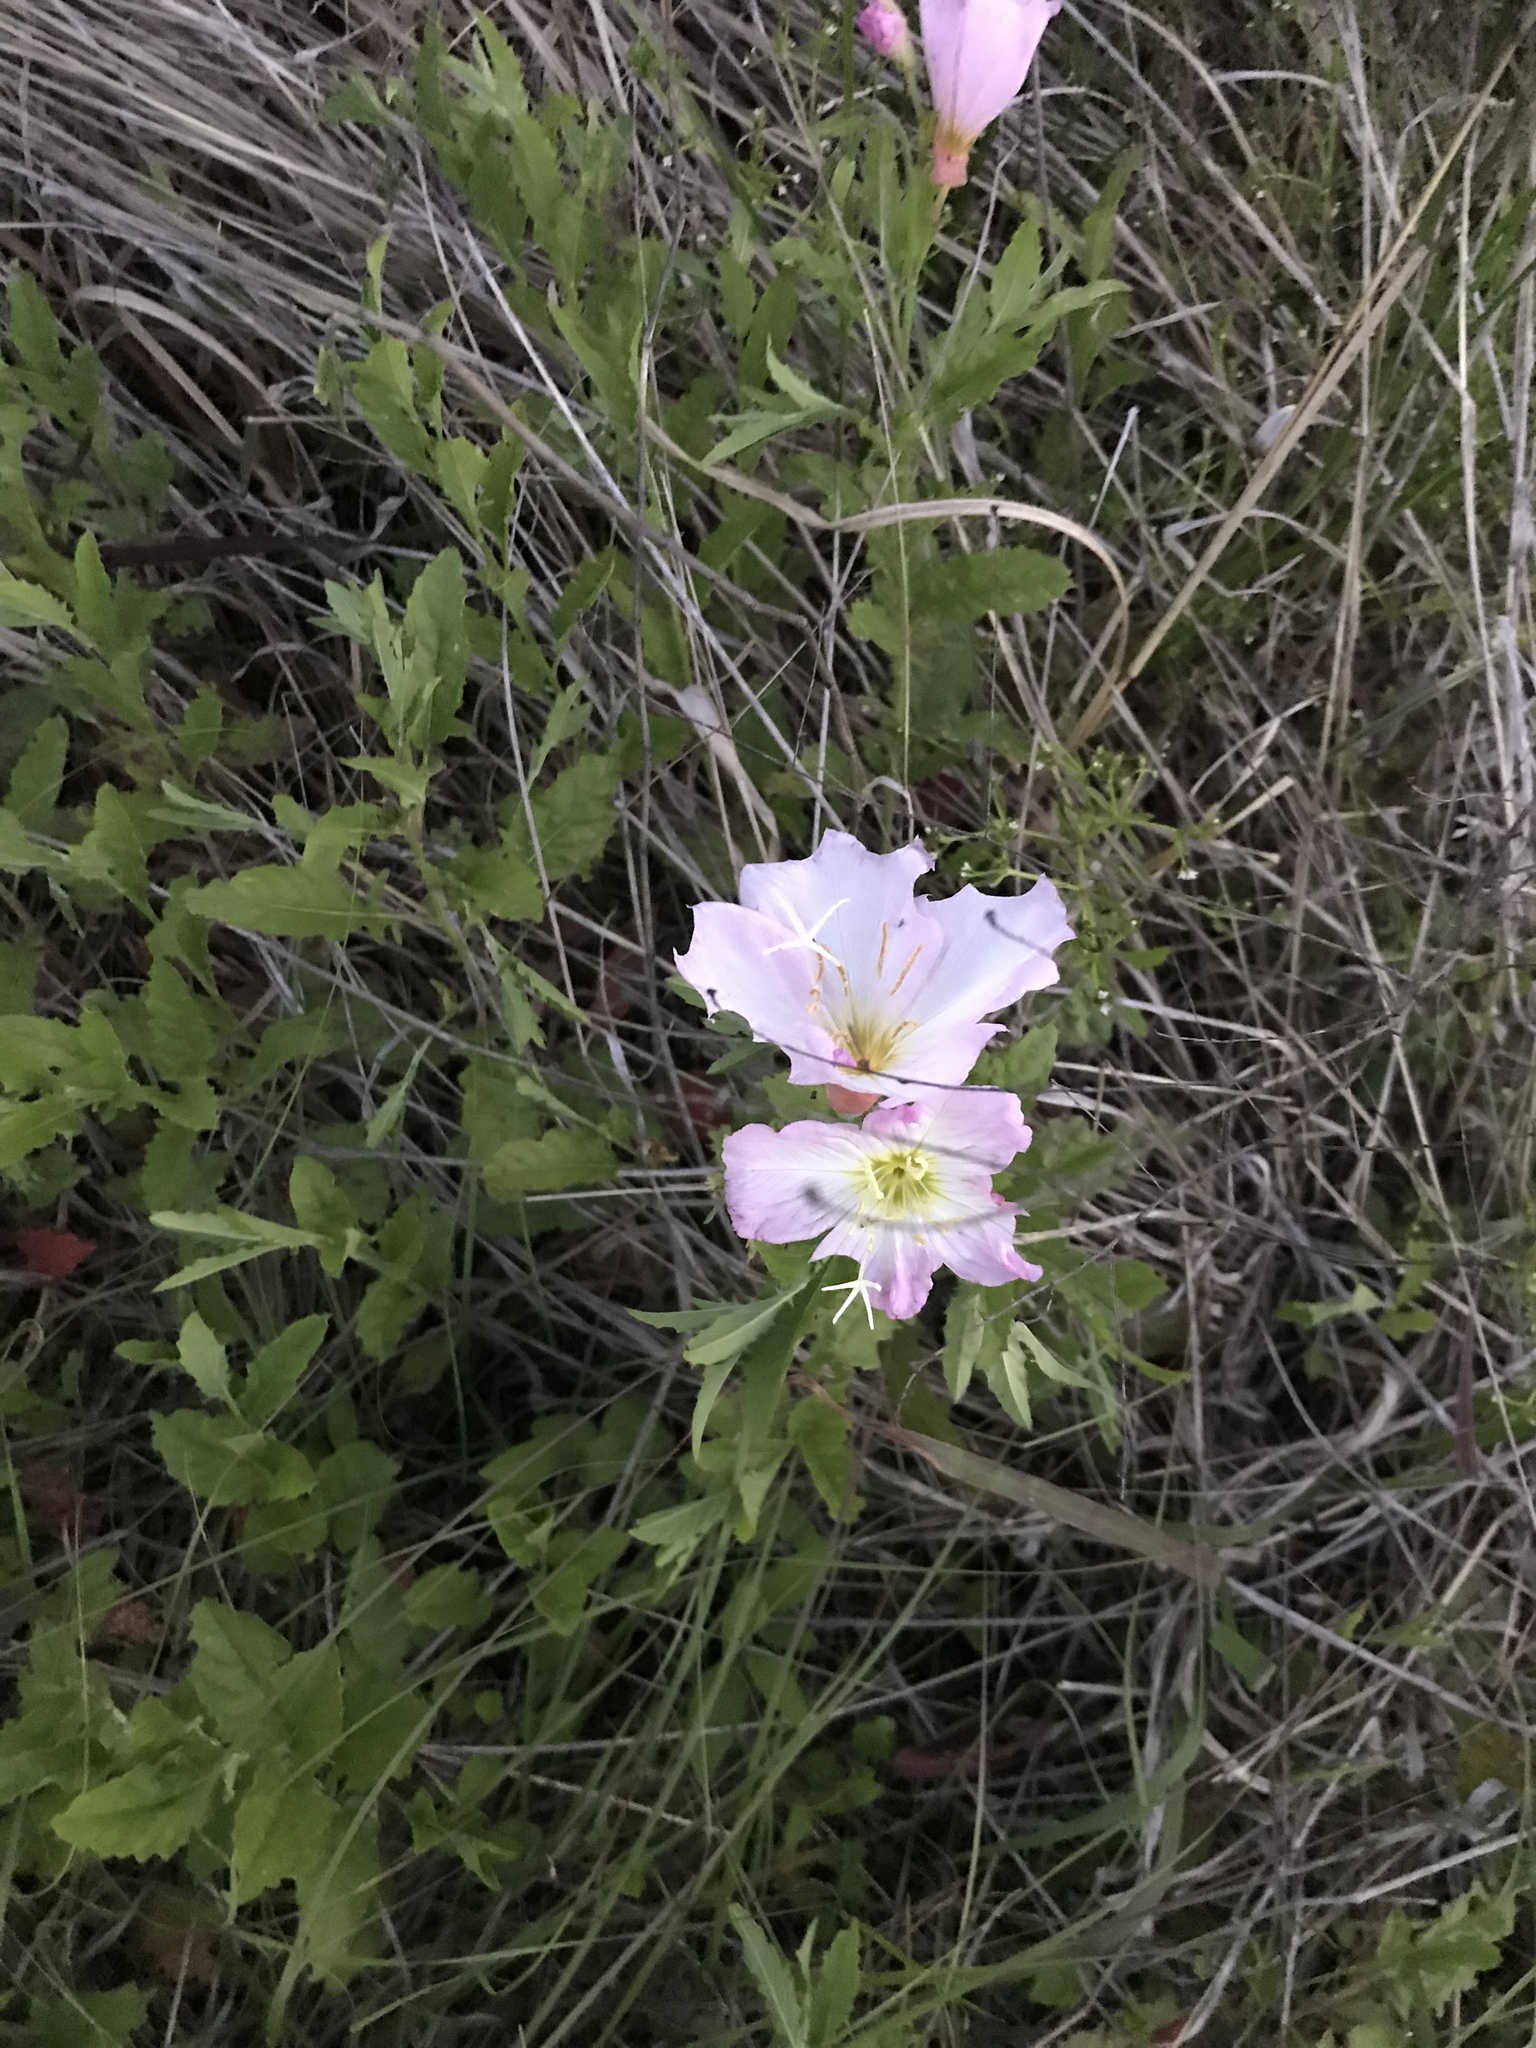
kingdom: Plantae
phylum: Tracheophyta
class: Magnoliopsida
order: Myrtales
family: Onagraceae
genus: Oenothera
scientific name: Oenothera speciosa
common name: White evening-primrose
